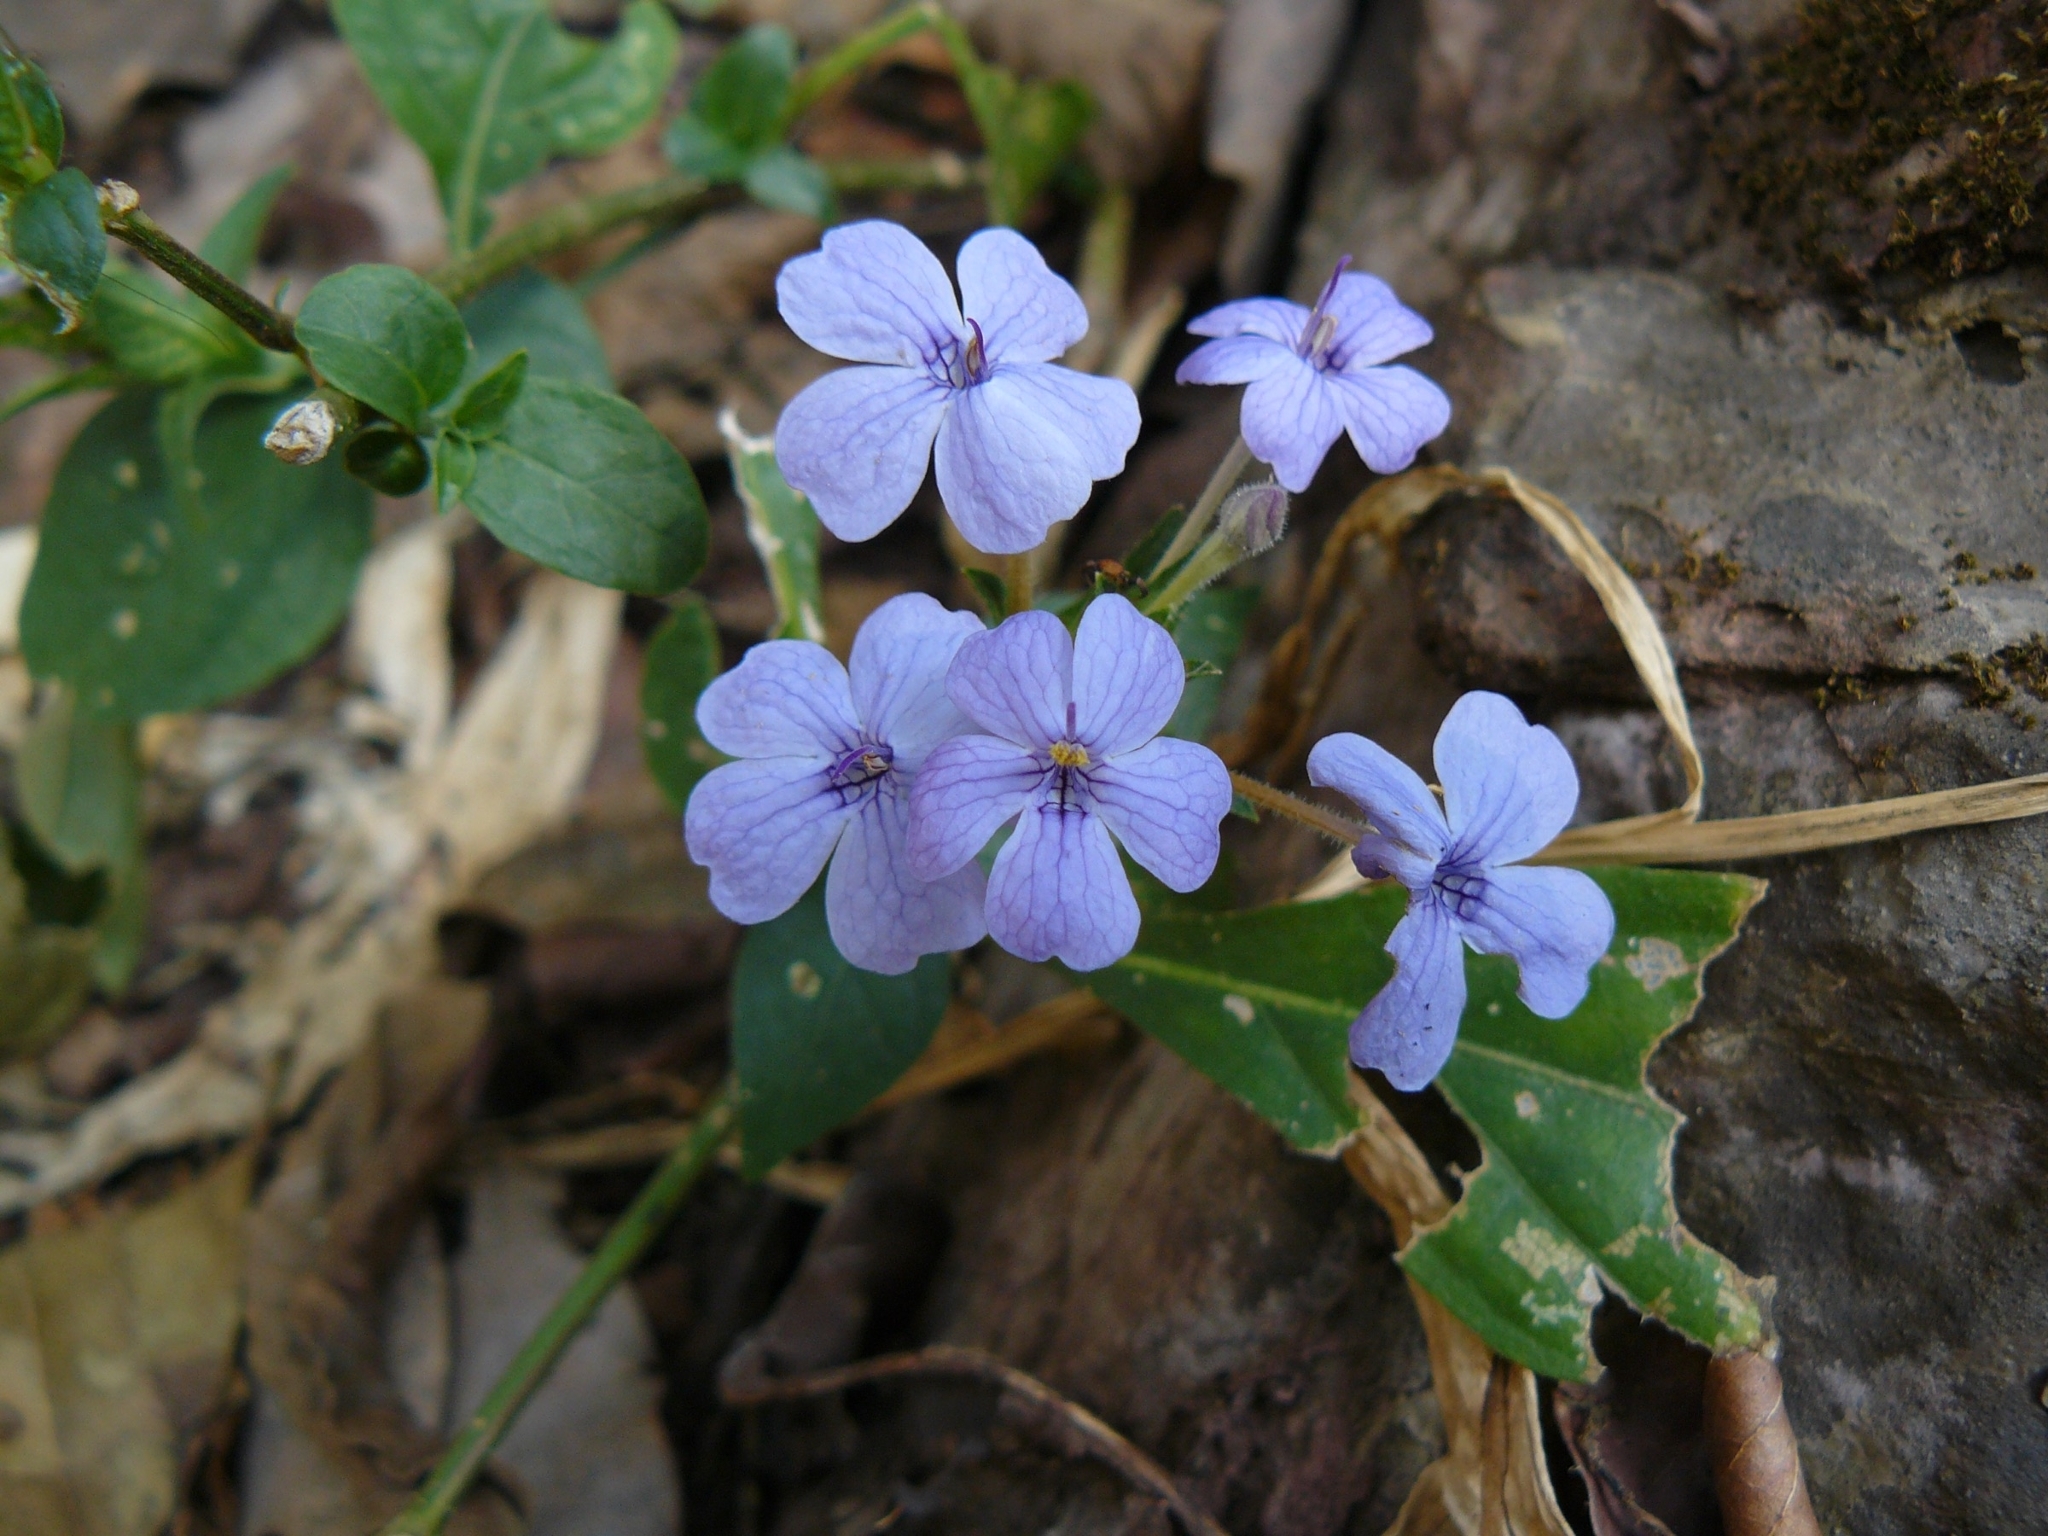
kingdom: Plantae
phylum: Tracheophyta
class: Magnoliopsida
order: Lamiales
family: Acanthaceae
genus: Eranthemum
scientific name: Eranthemum pulchellum
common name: Blue-sage
